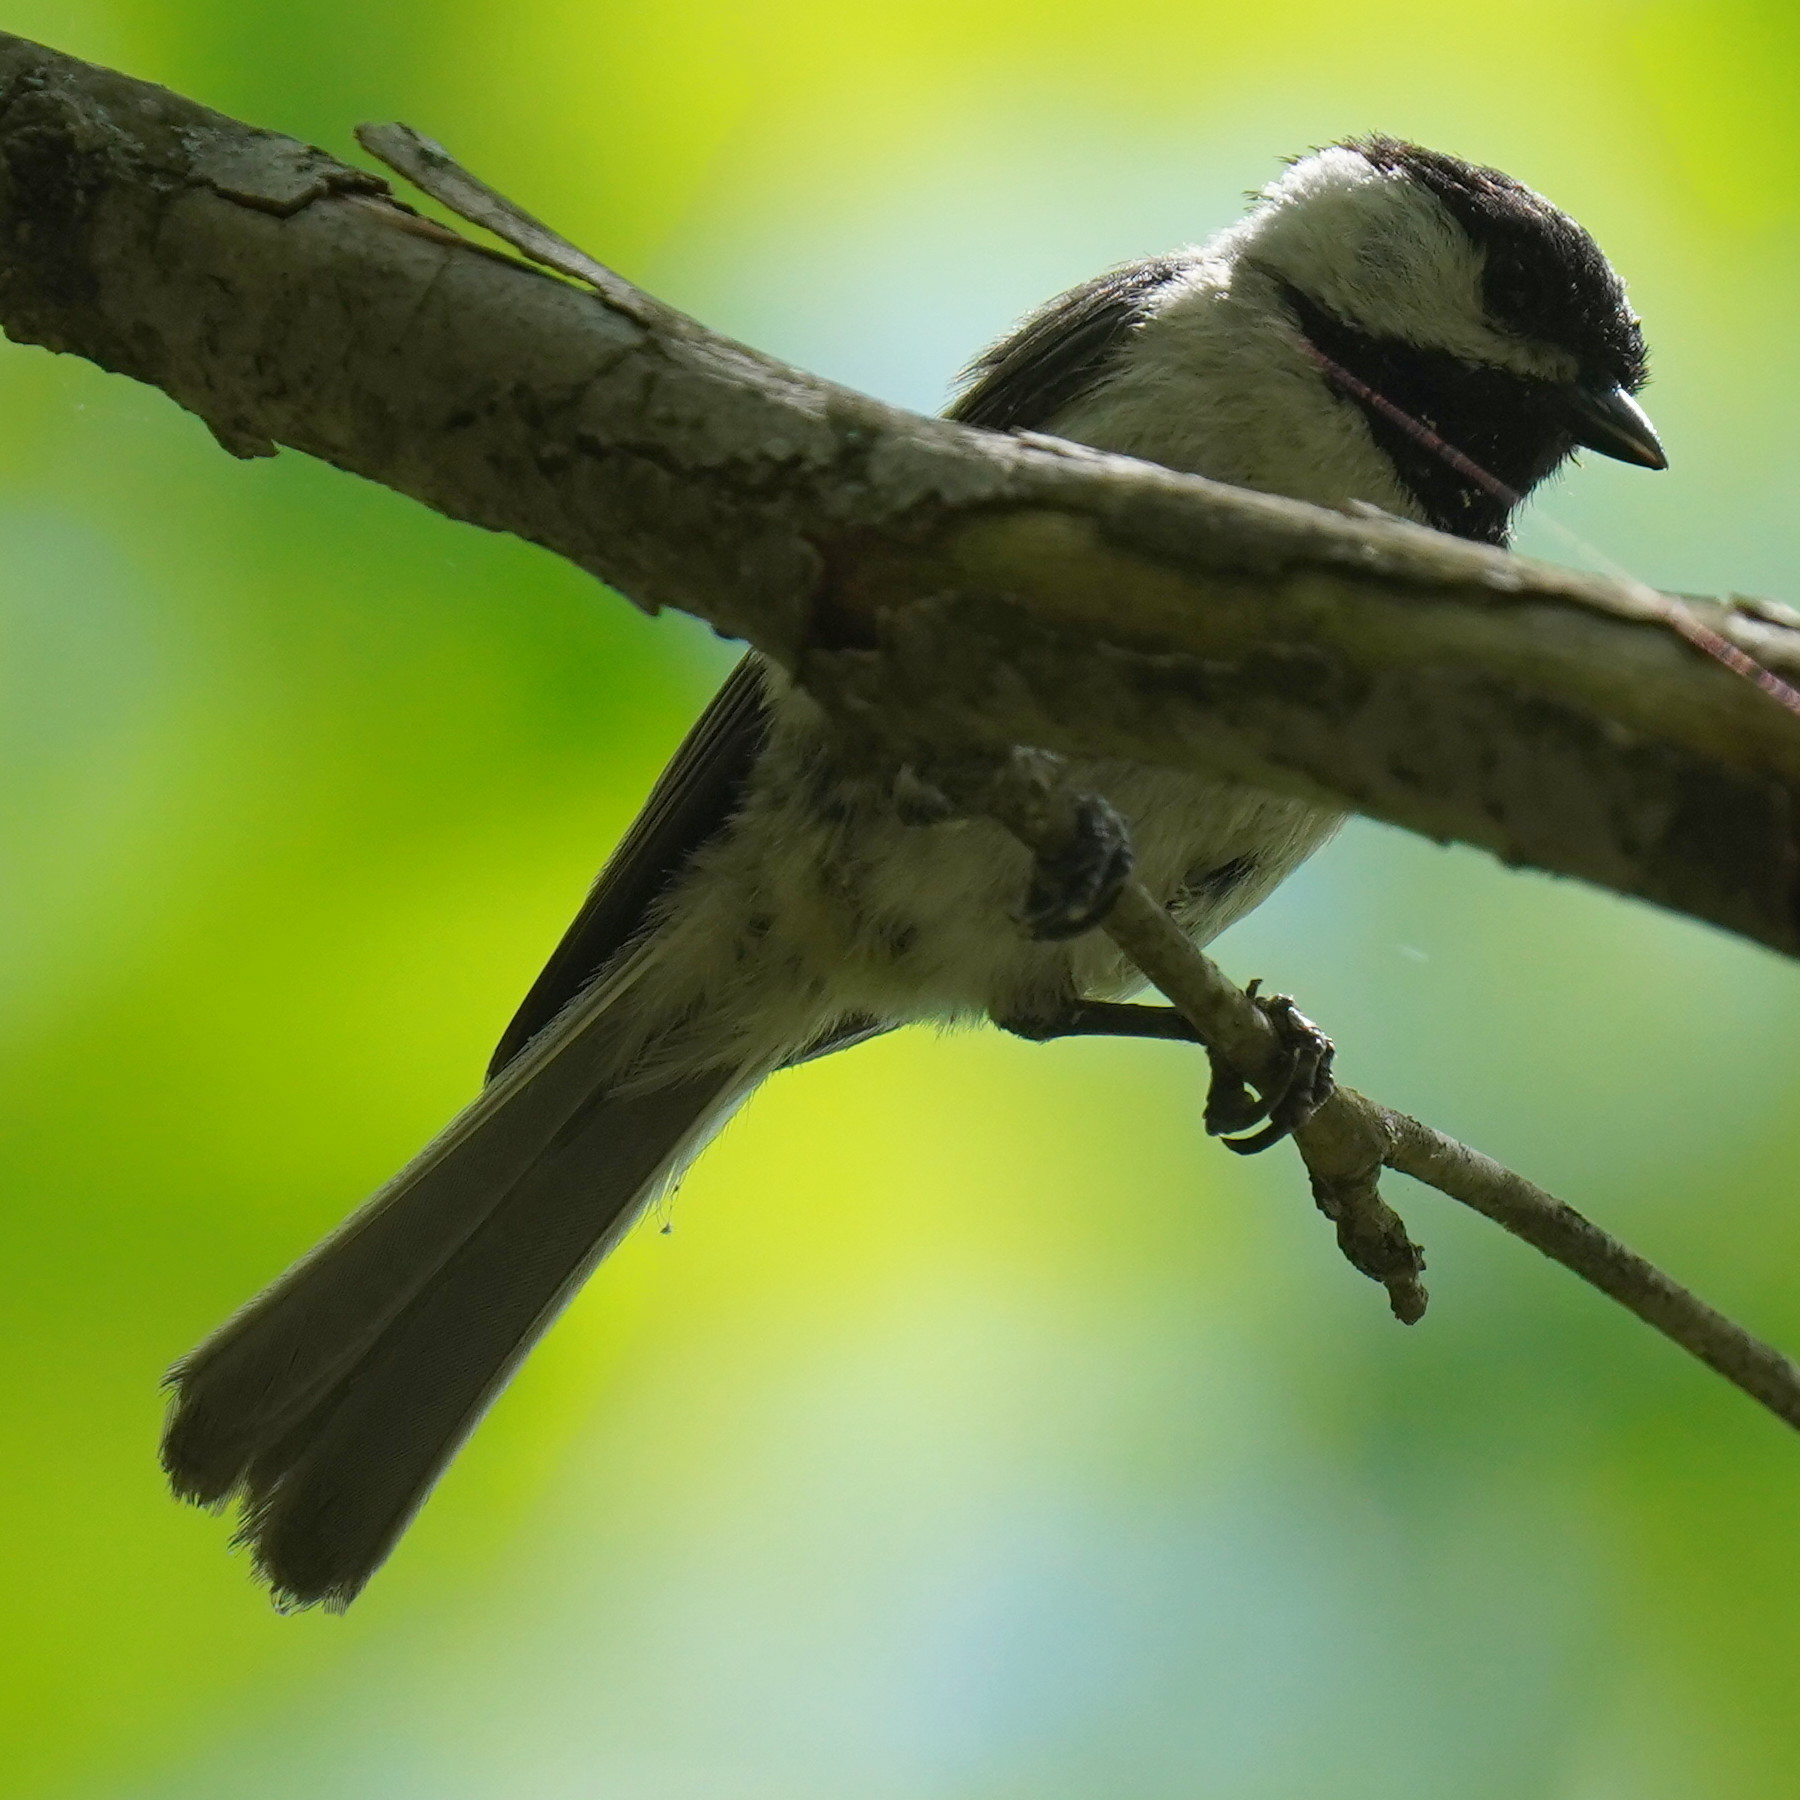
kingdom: Animalia
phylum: Chordata
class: Aves
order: Passeriformes
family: Paridae
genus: Poecile
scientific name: Poecile carolinensis
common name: Carolina chickadee
